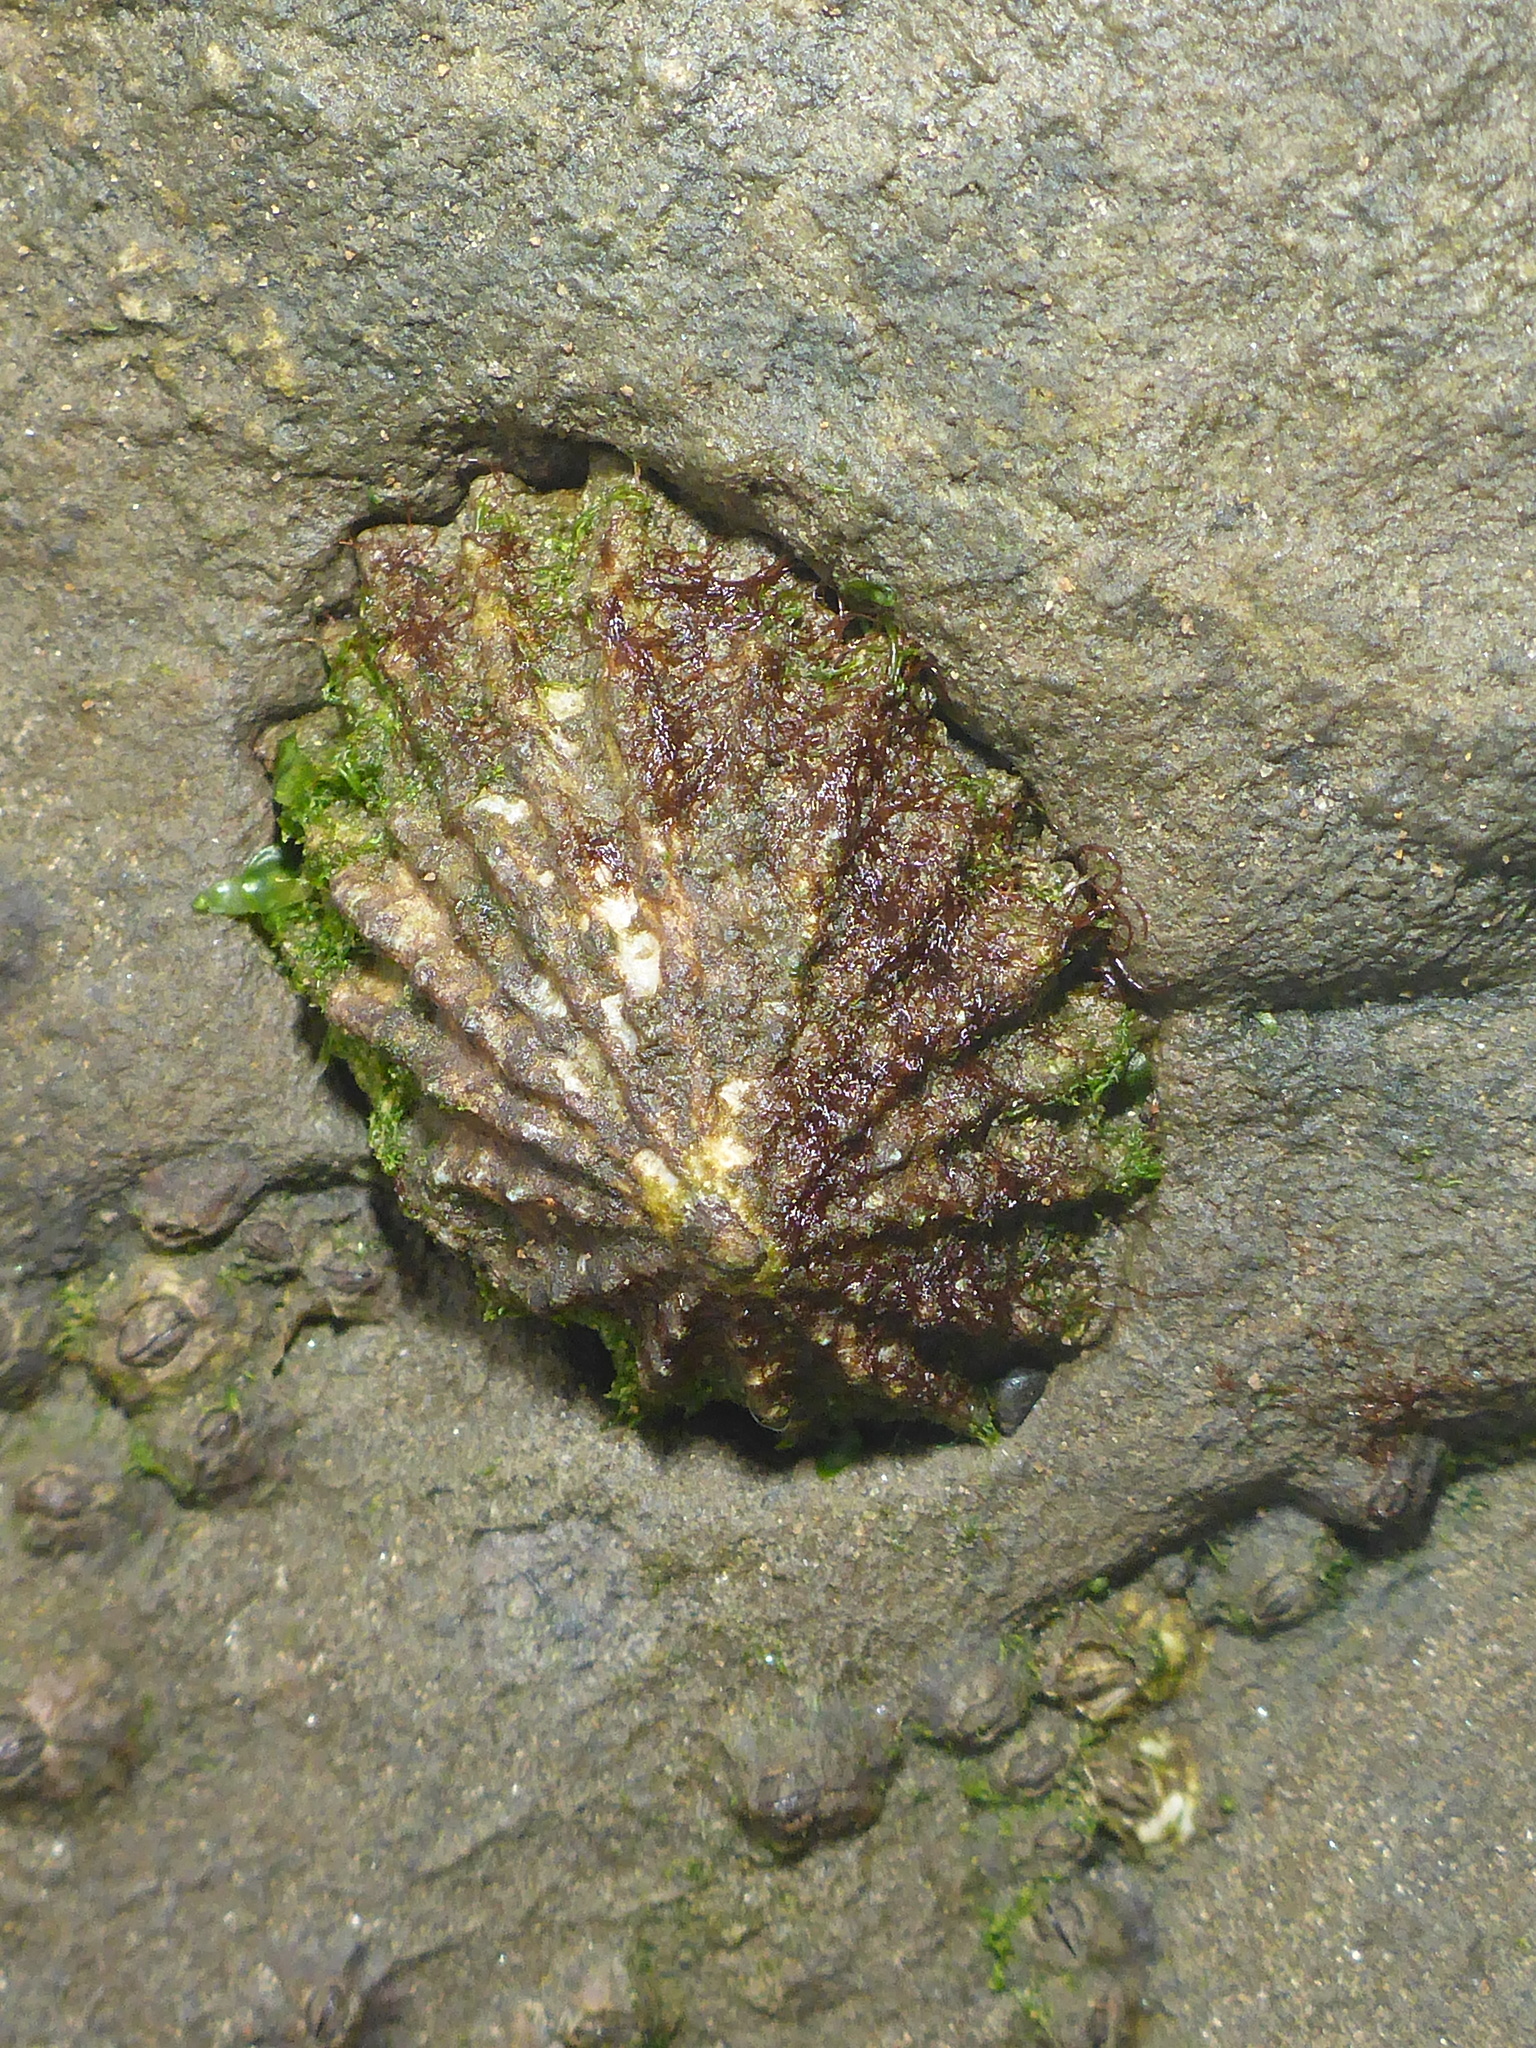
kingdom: Animalia
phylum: Mollusca
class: Gastropoda
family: Lottiidae
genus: Lottia
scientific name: Lottia scabra
